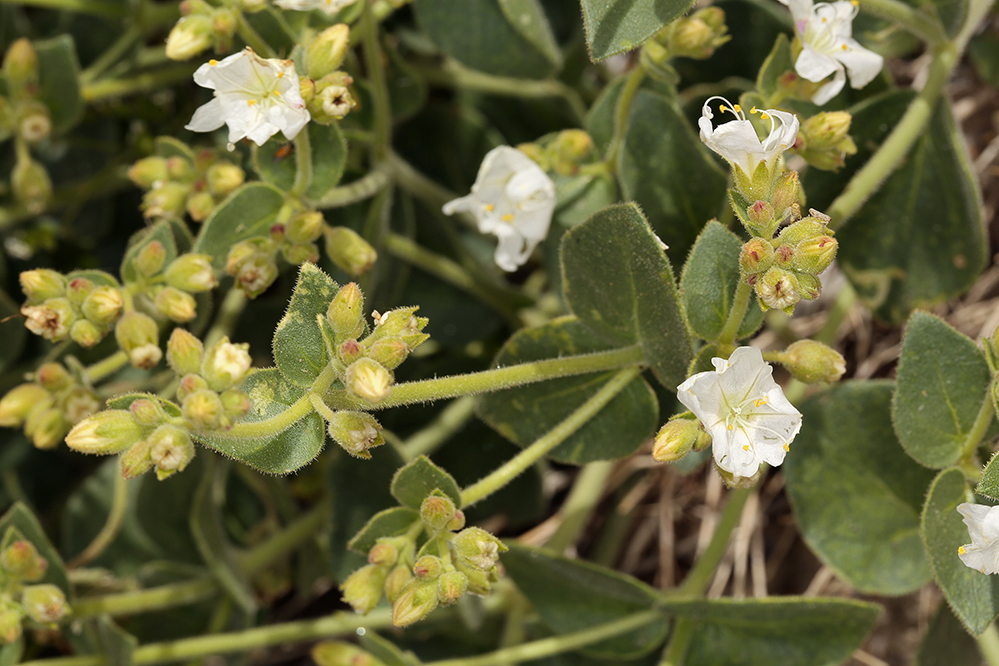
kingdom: Plantae
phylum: Tracheophyta
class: Magnoliopsida
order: Caryophyllales
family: Nyctaginaceae
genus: Mirabilis
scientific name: Mirabilis laevis
